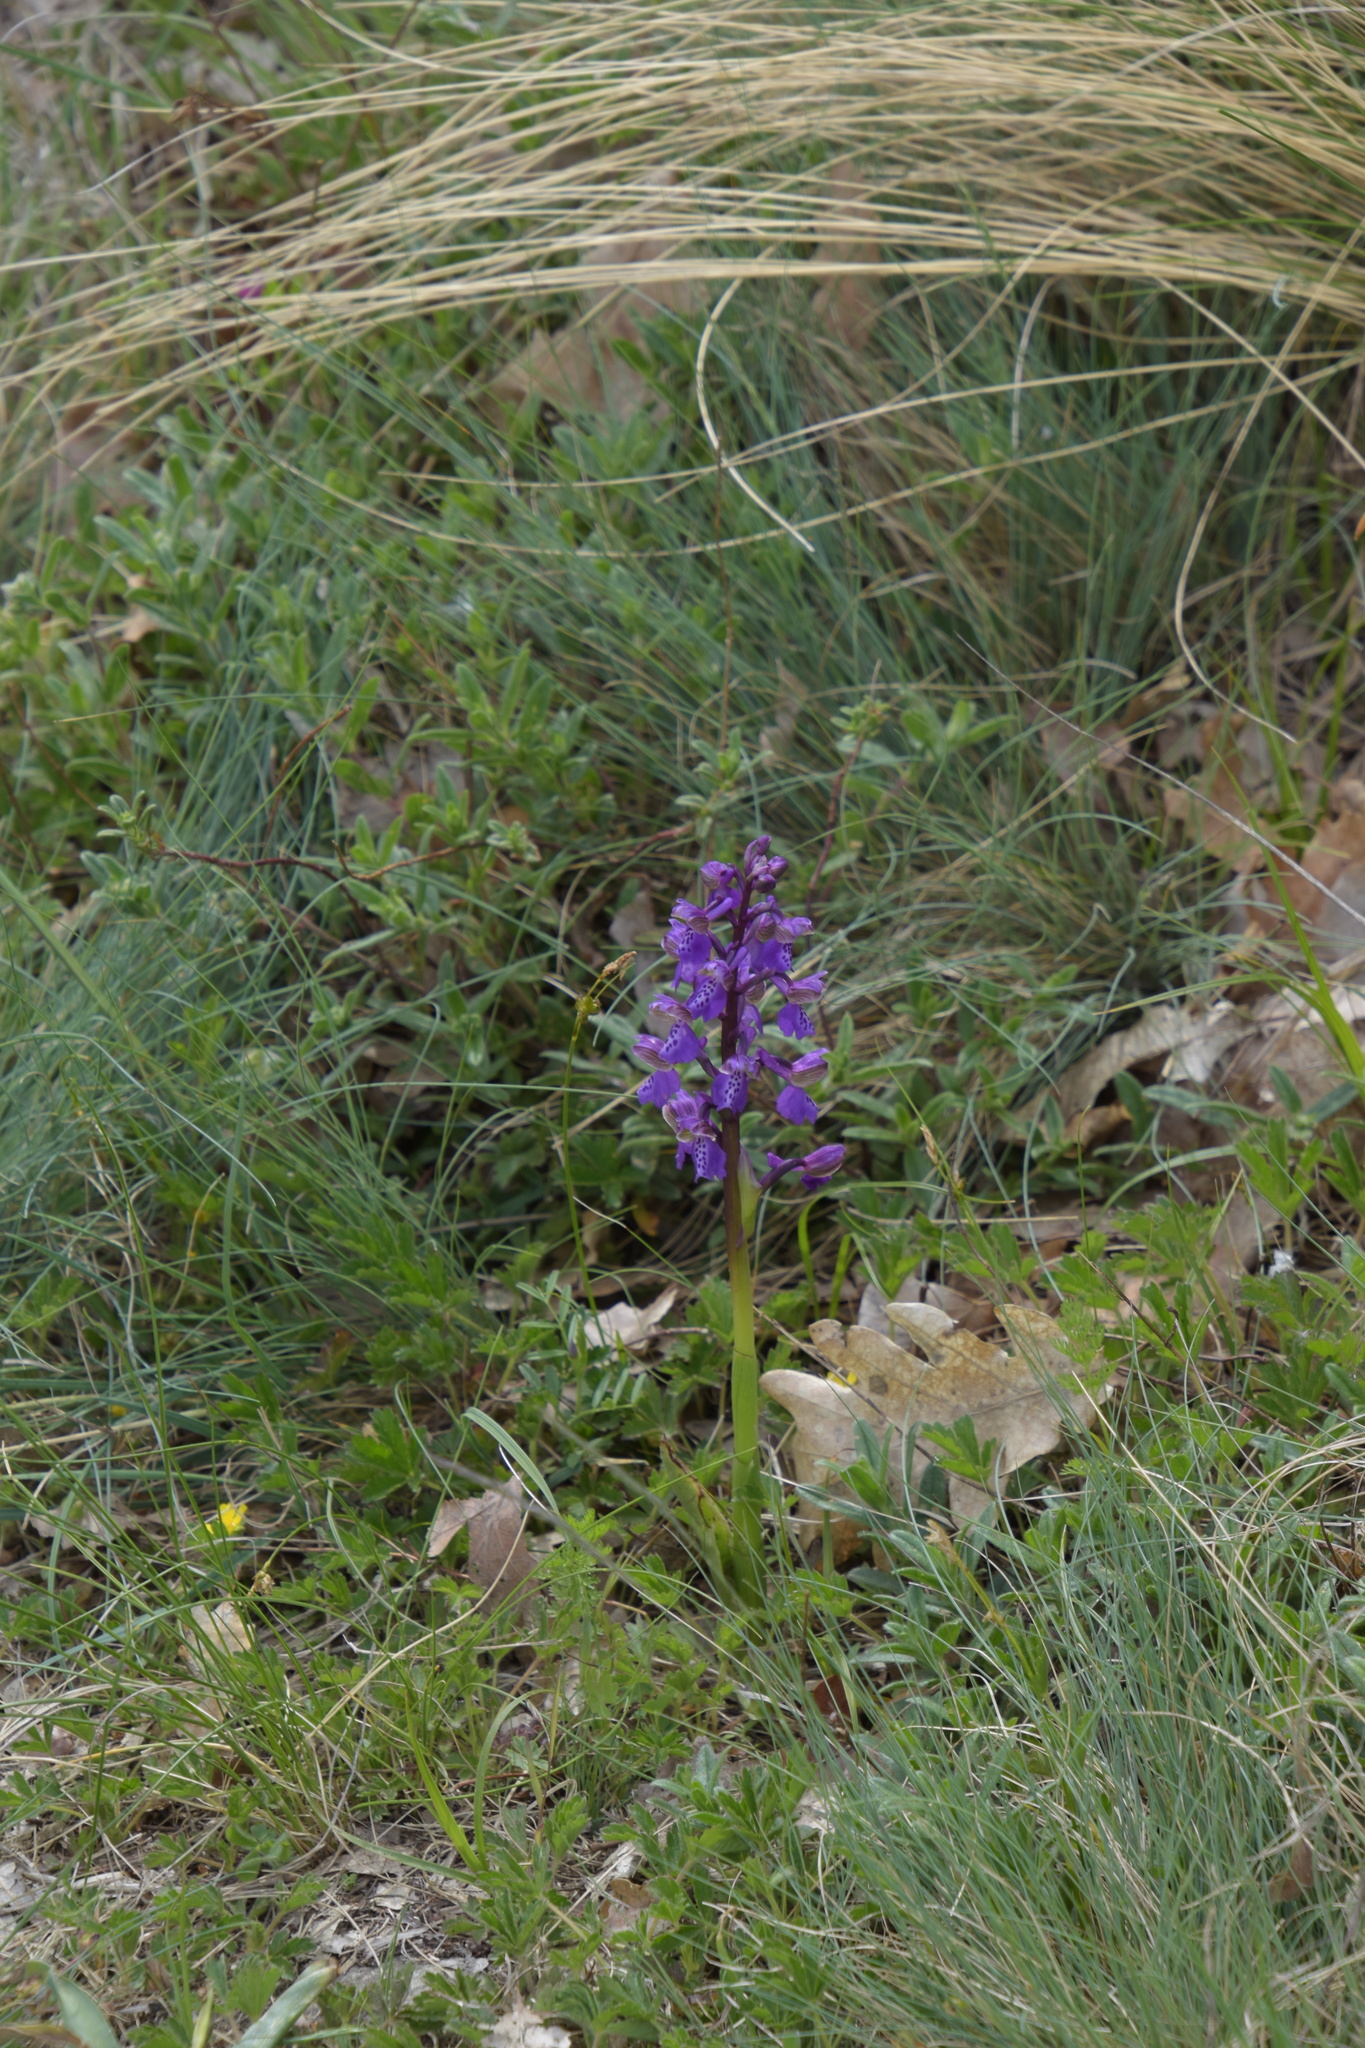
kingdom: Plantae
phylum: Tracheophyta
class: Liliopsida
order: Asparagales
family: Orchidaceae
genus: Anacamptis
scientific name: Anacamptis morio
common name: Green-winged orchid
